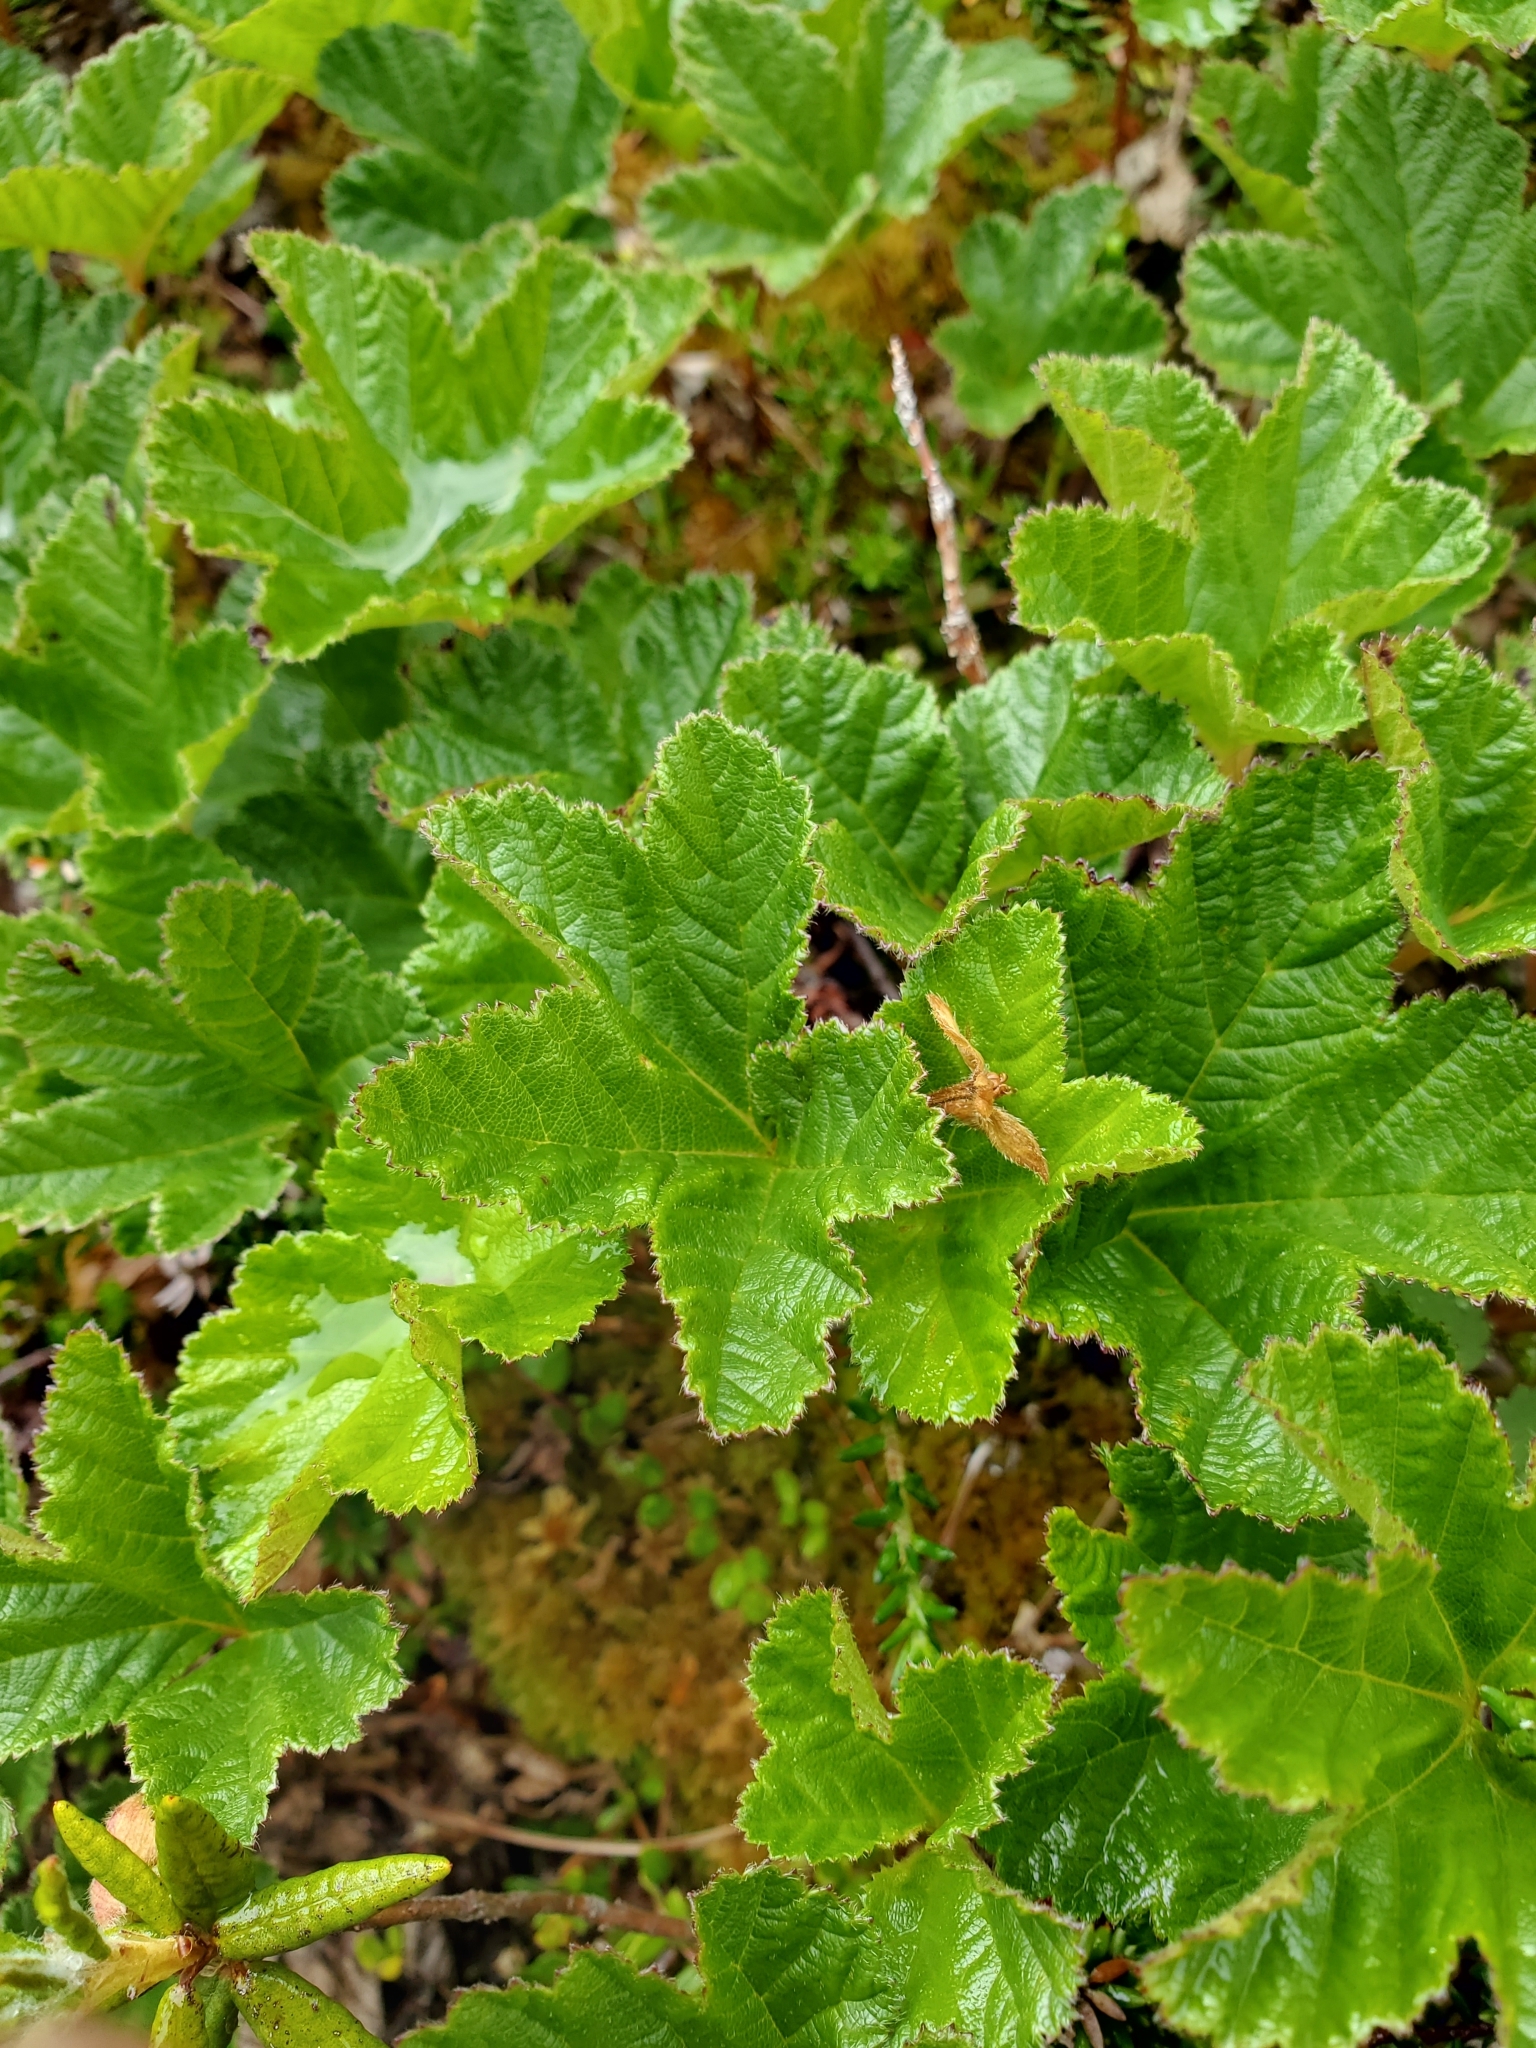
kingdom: Plantae
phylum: Tracheophyta
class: Magnoliopsida
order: Rosales
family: Rosaceae
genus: Rubus
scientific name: Rubus chamaemorus
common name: Cloudberry
